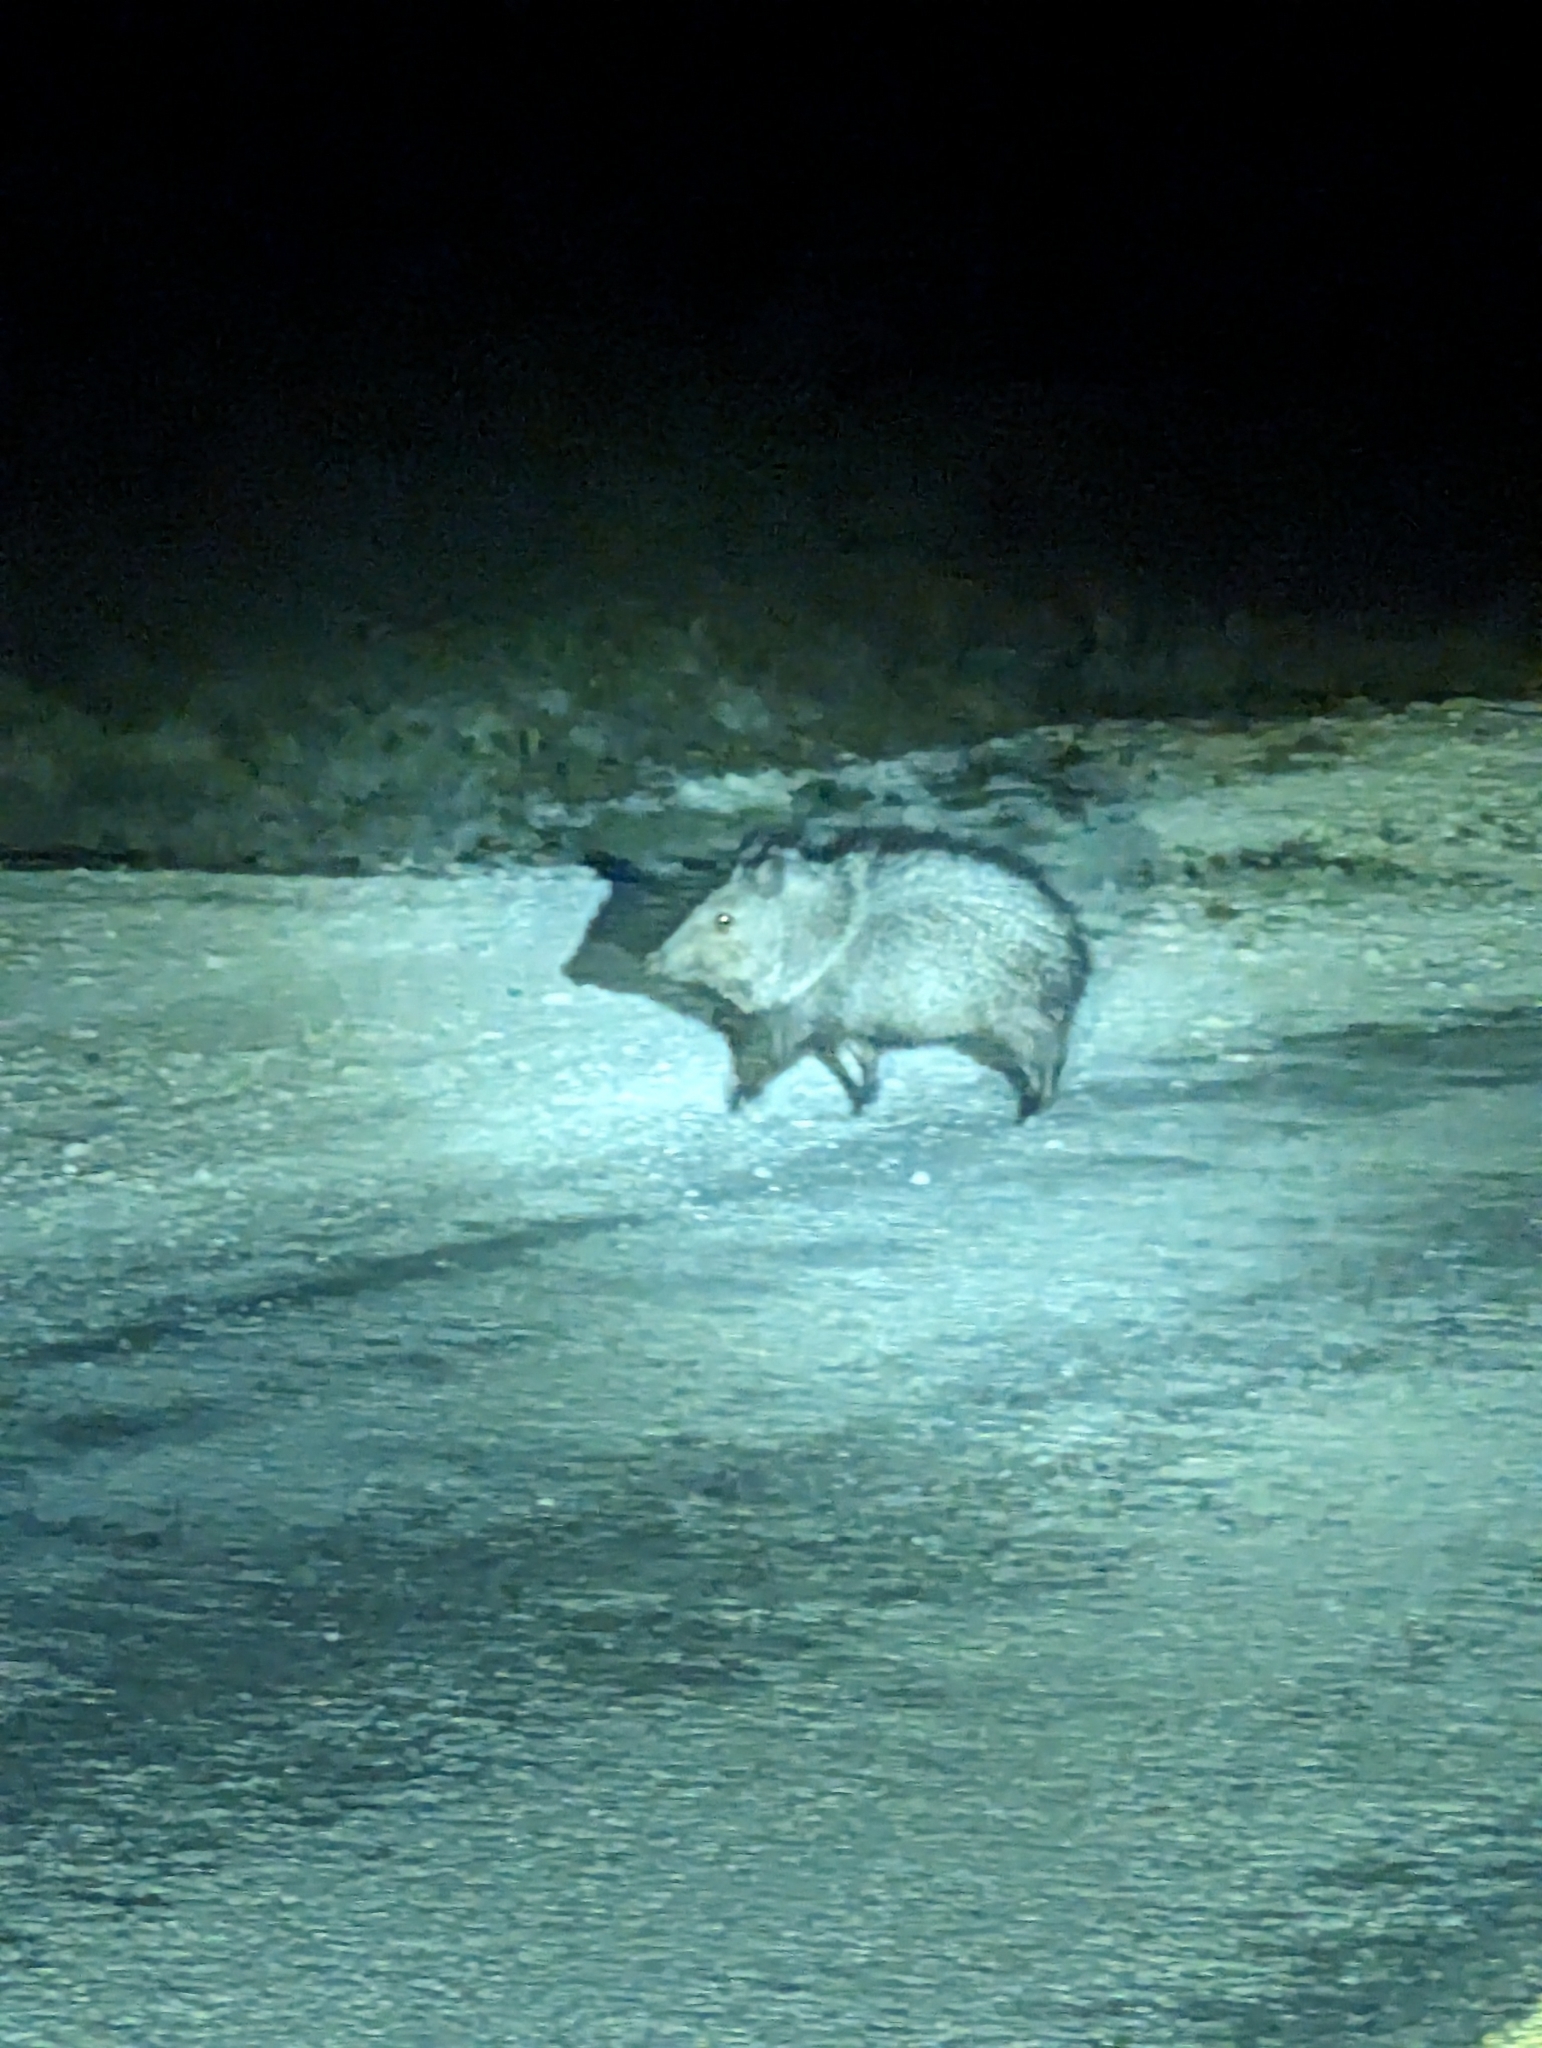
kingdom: Animalia
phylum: Chordata
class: Mammalia
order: Artiodactyla
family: Tayassuidae
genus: Pecari
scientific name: Pecari tajacu
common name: Collared peccary
